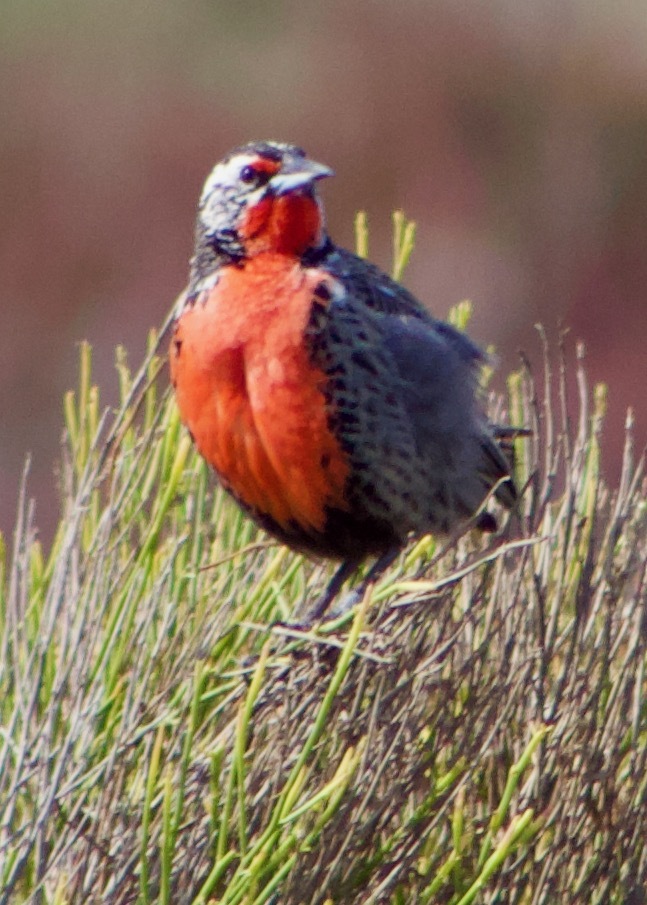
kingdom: Animalia
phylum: Chordata
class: Aves
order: Passeriformes
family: Icteridae
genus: Sturnella
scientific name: Sturnella loyca
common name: Long-tailed meadowlark
